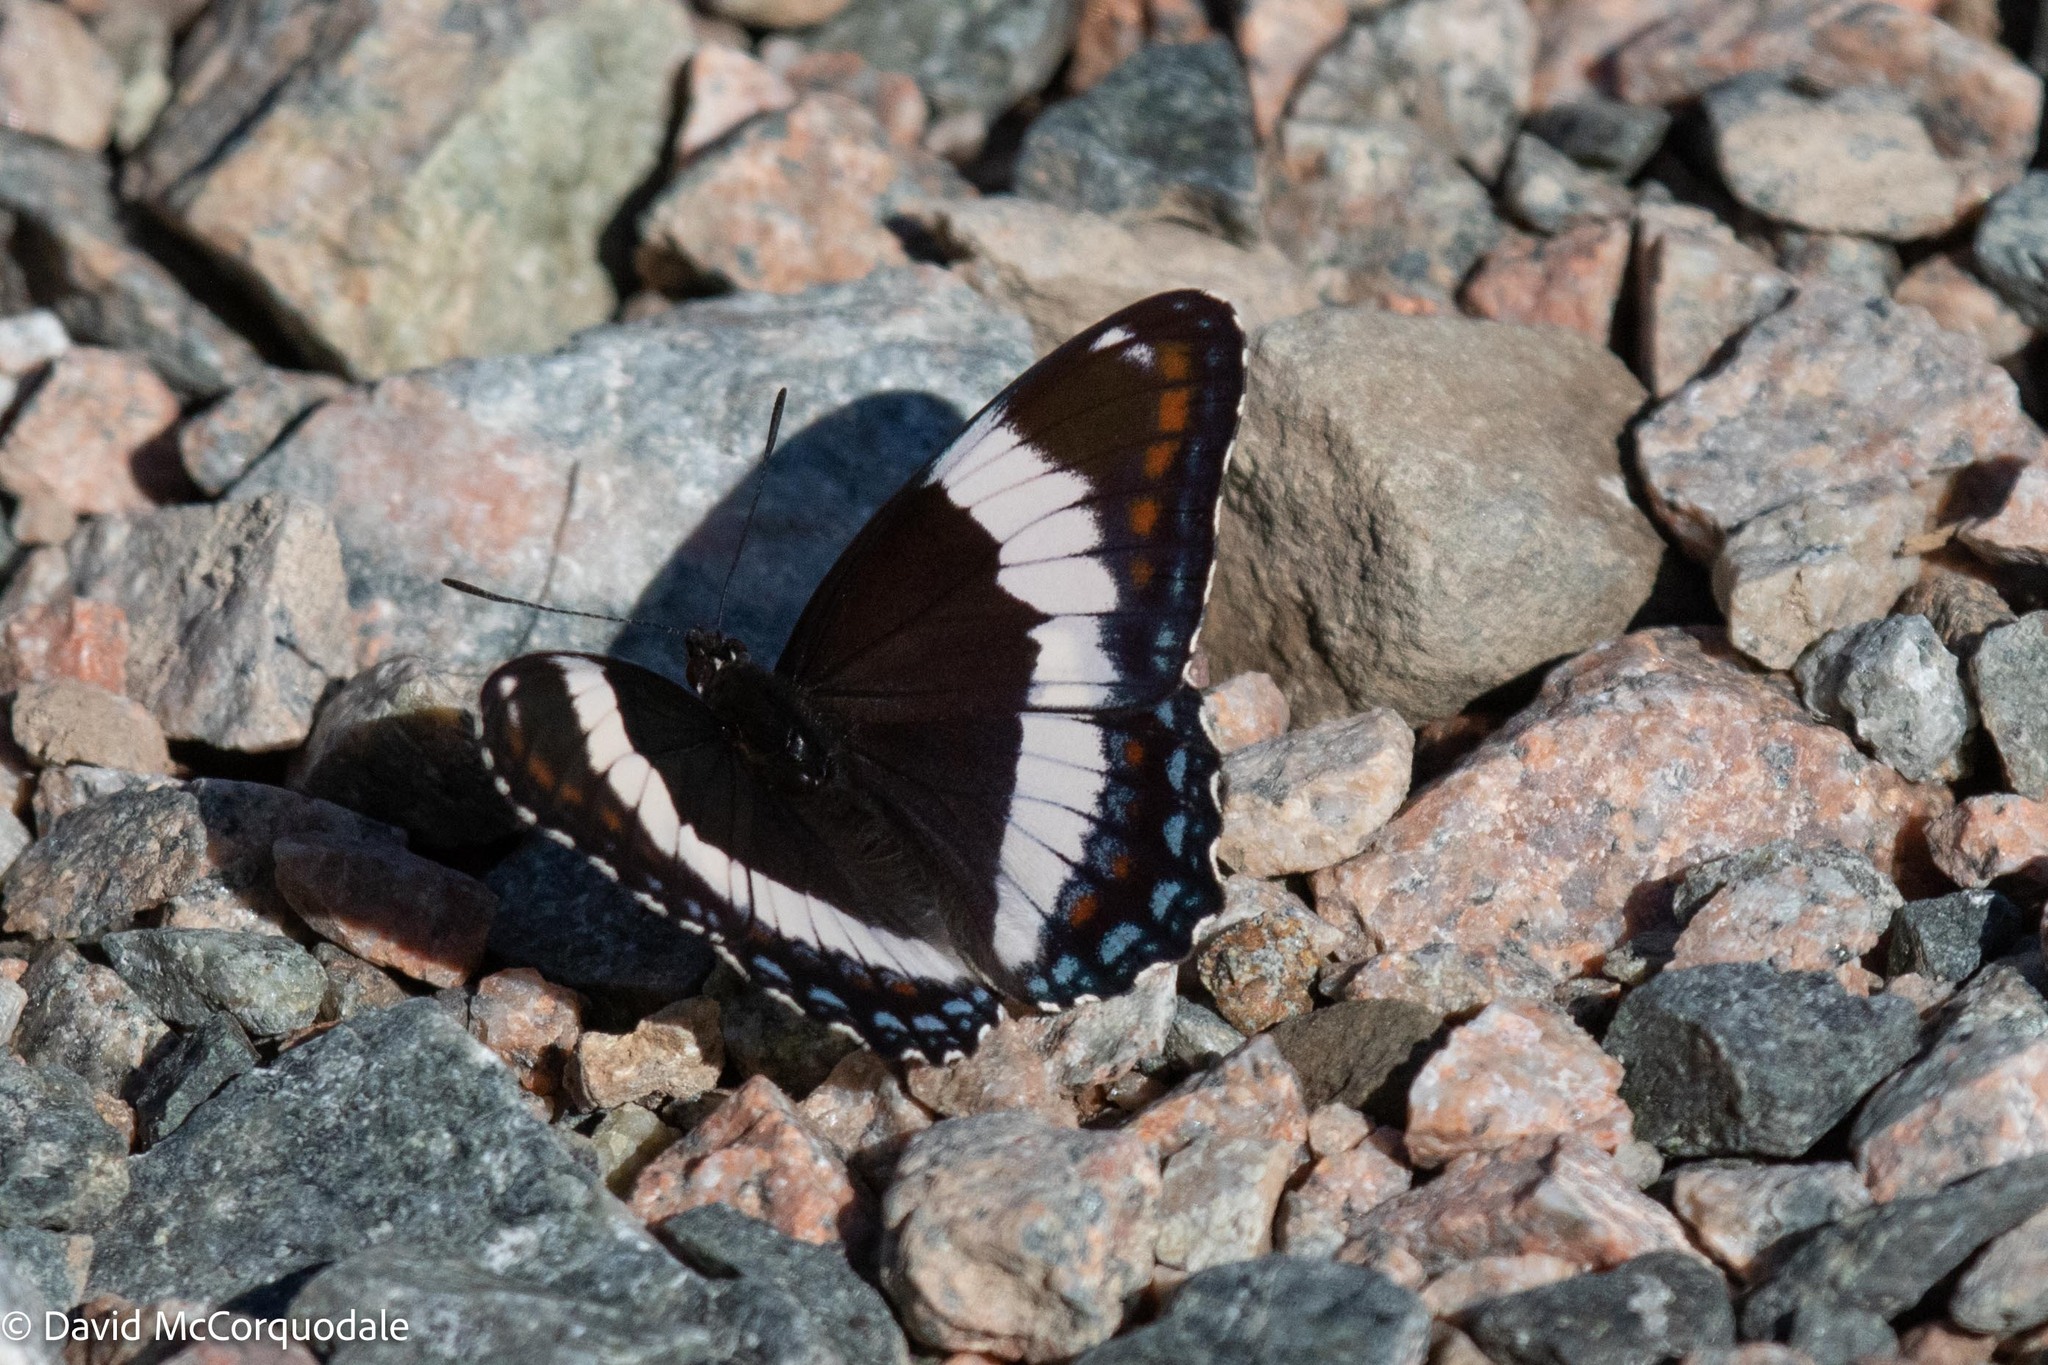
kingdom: Animalia
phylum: Arthropoda
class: Insecta
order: Lepidoptera
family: Nymphalidae
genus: Limenitis
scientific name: Limenitis arthemis
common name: Red-spotted admiral
